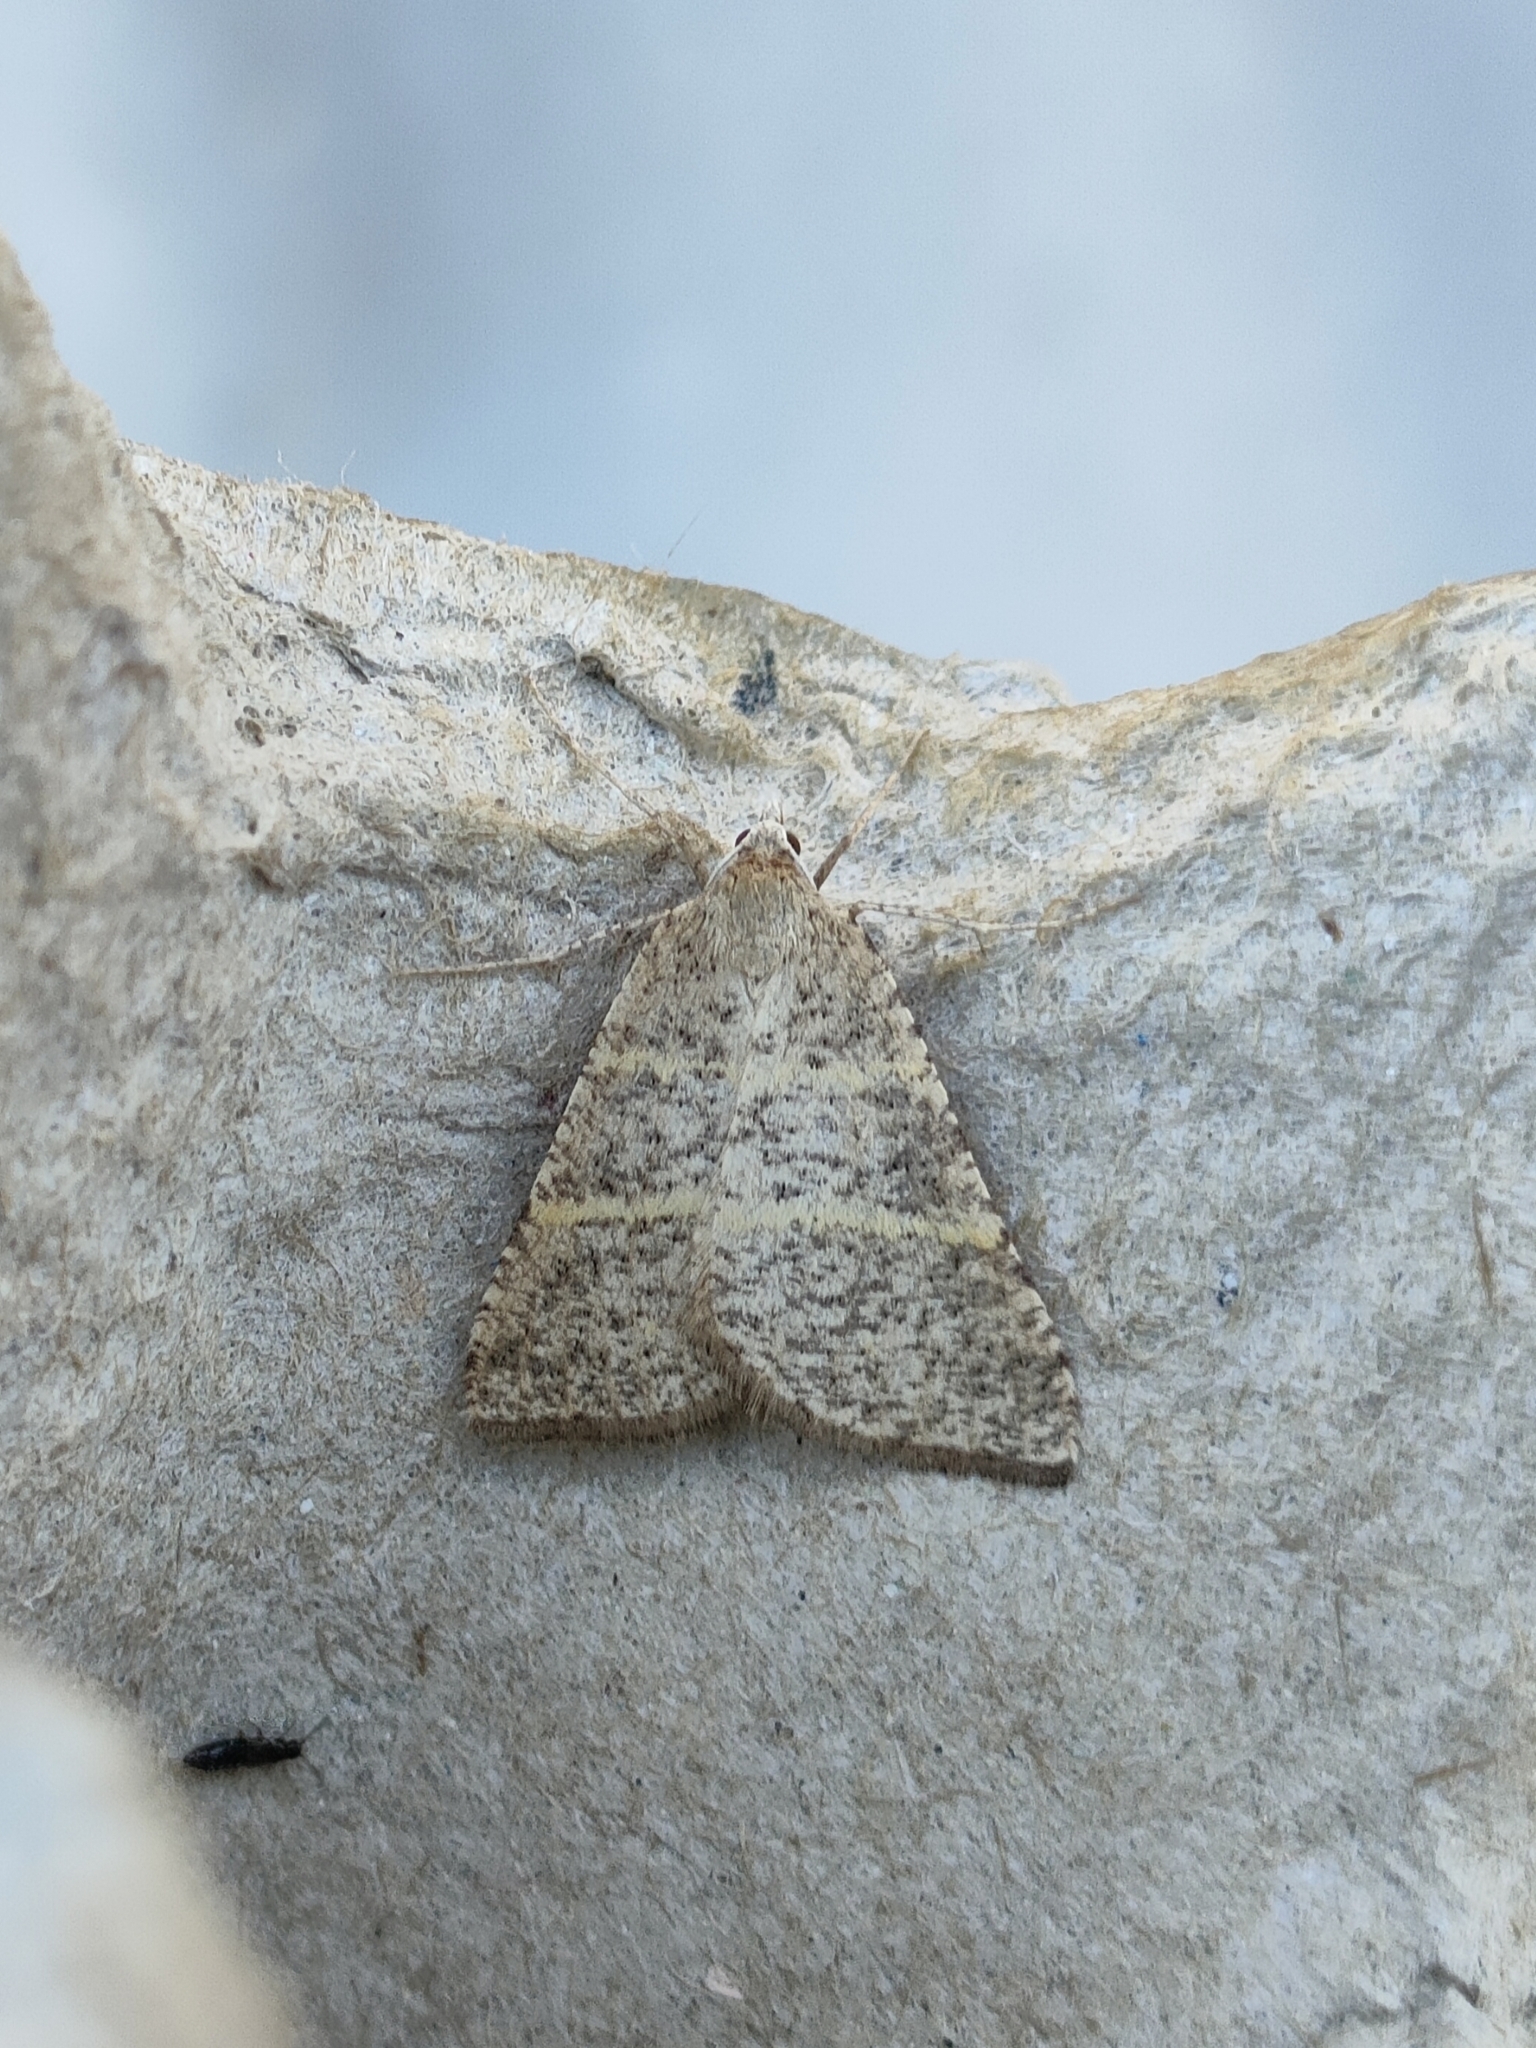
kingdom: Animalia
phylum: Arthropoda
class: Insecta
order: Lepidoptera
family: Pterophoridae
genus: Pterophorus
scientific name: Pterophorus Petrophora narbonea
